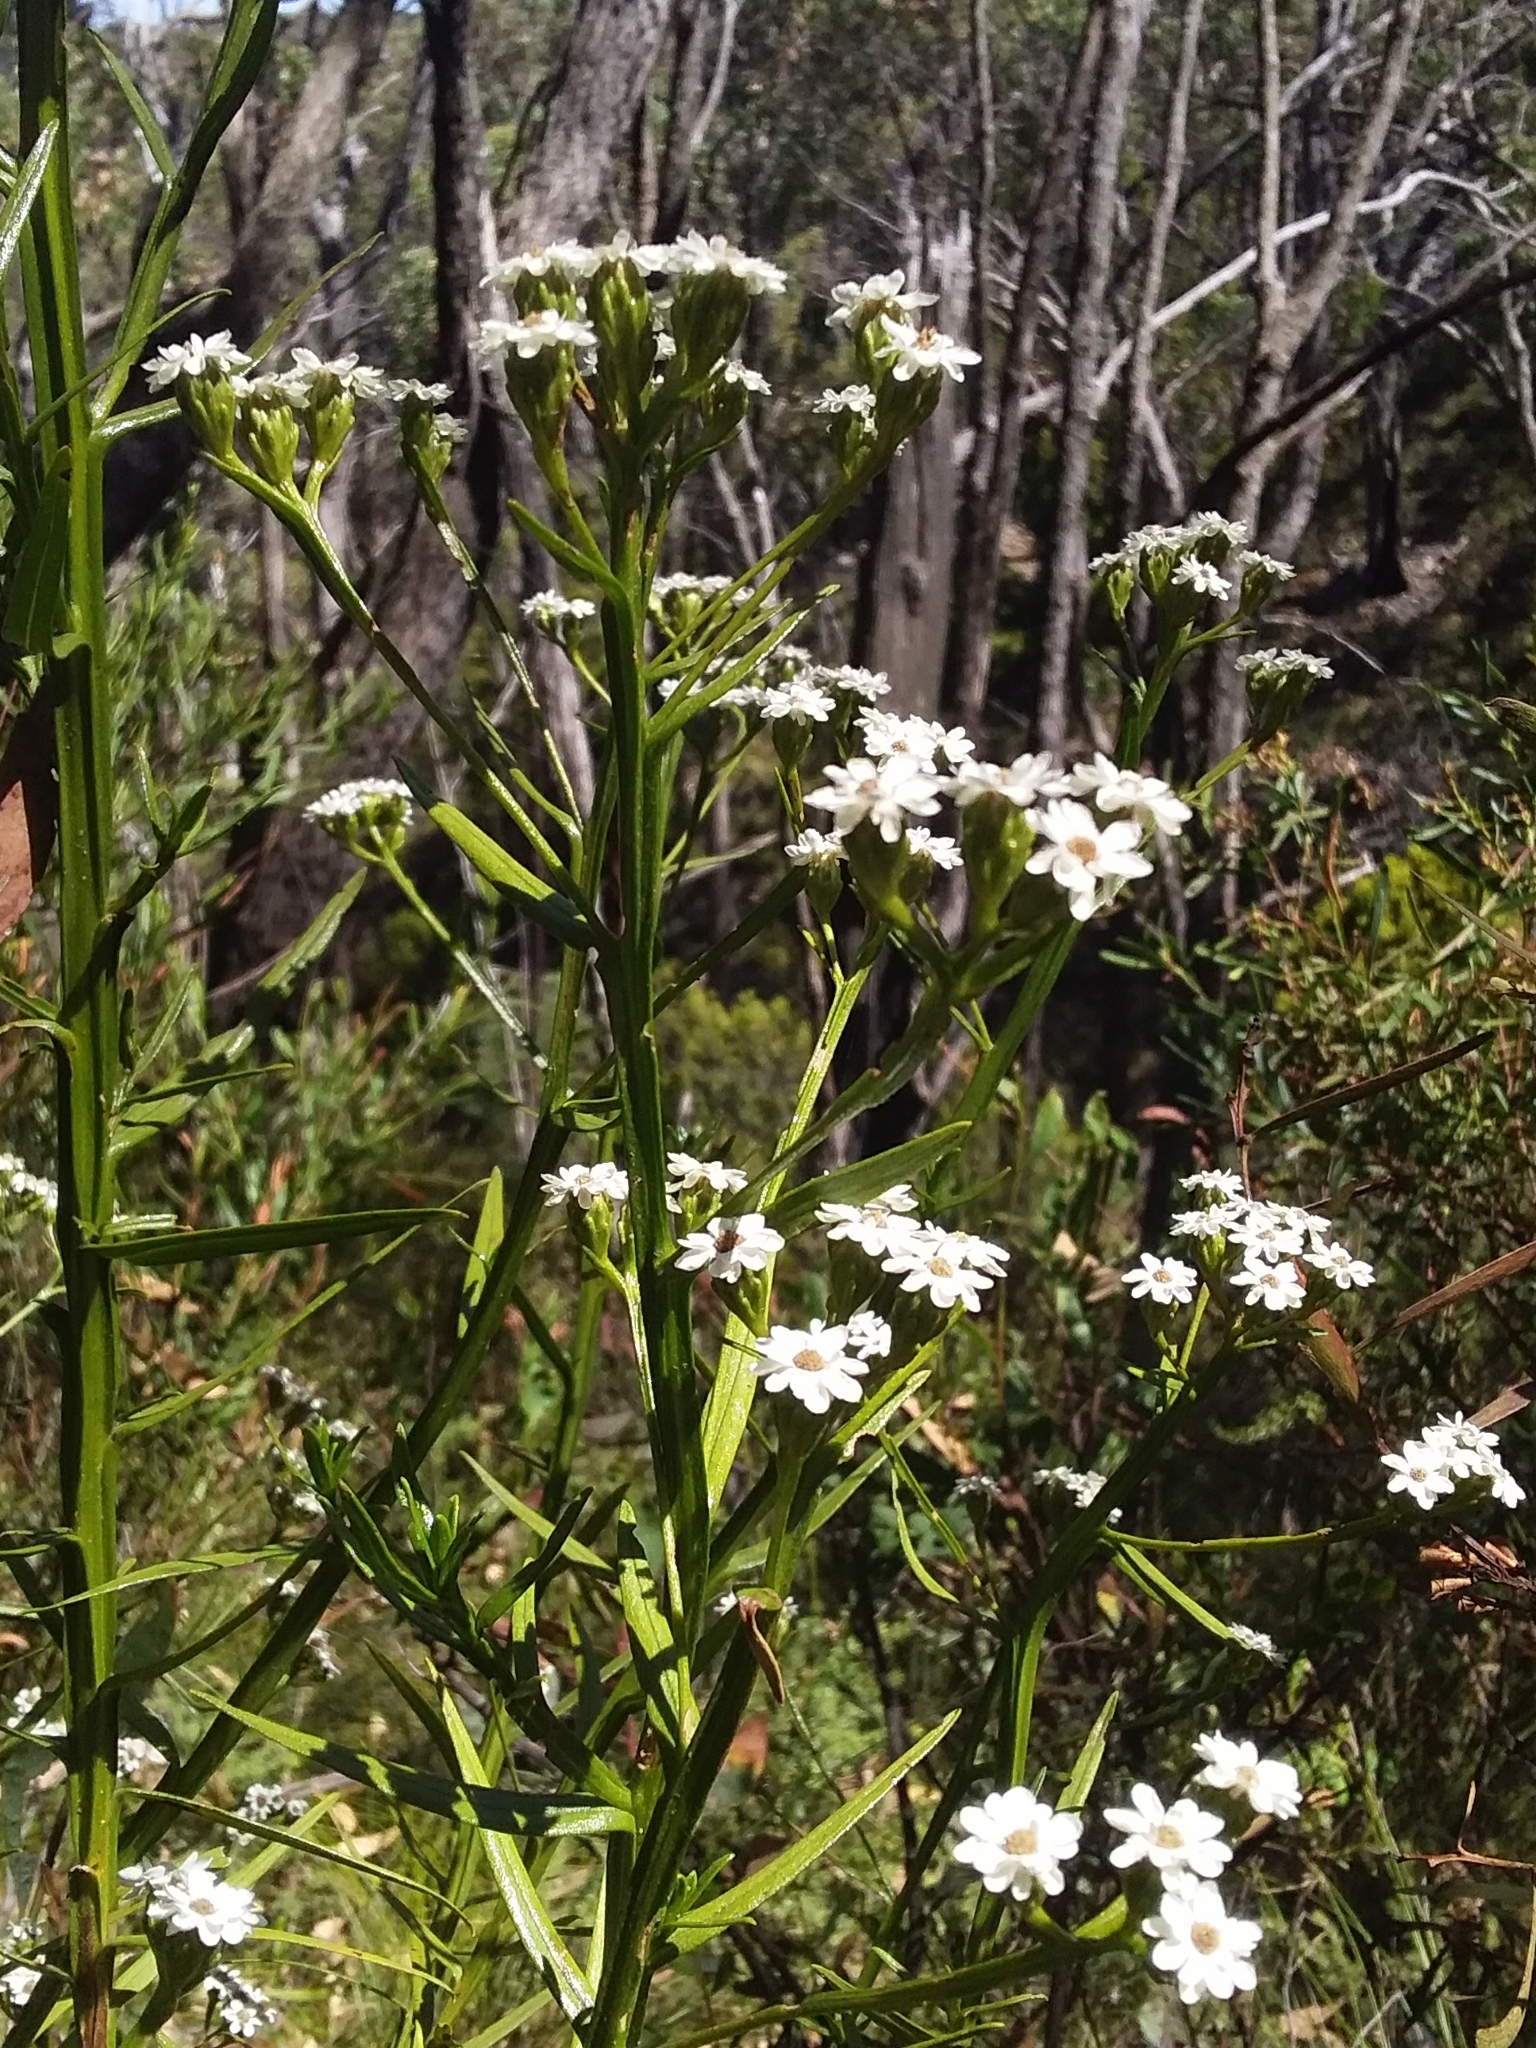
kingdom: Plantae
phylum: Tracheophyta
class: Magnoliopsida
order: Asterales
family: Asteraceae
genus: Ixodia
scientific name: Ixodia achillaeoides
